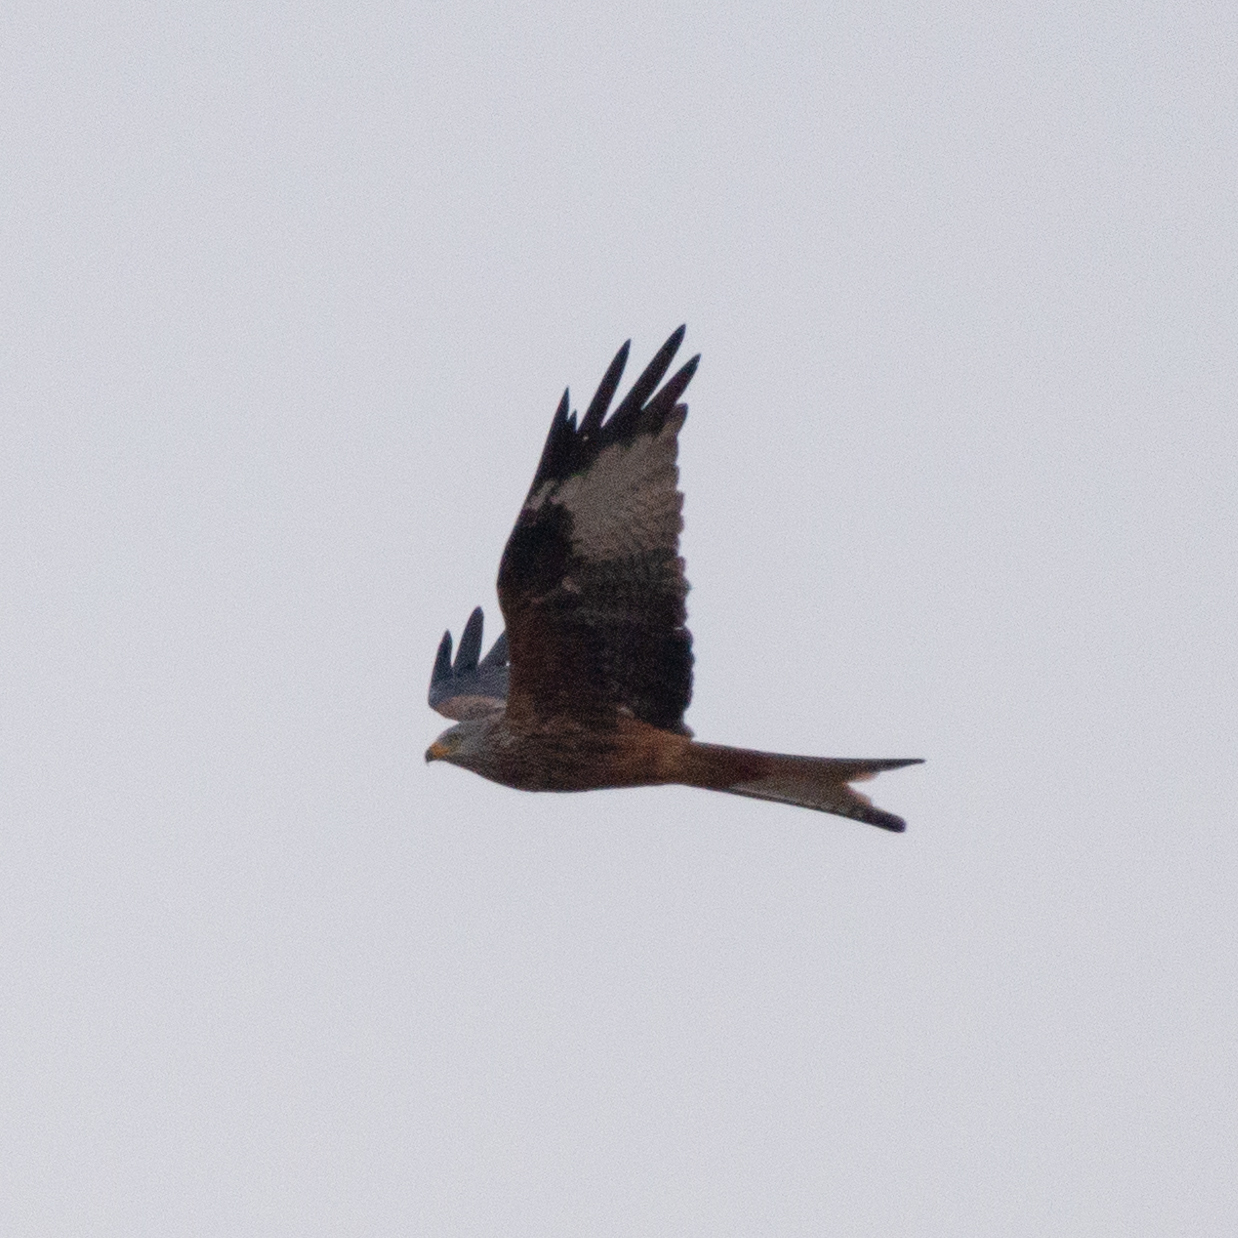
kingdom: Animalia
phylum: Chordata
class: Aves
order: Accipitriformes
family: Accipitridae
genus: Milvus
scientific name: Milvus milvus
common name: Red kite
